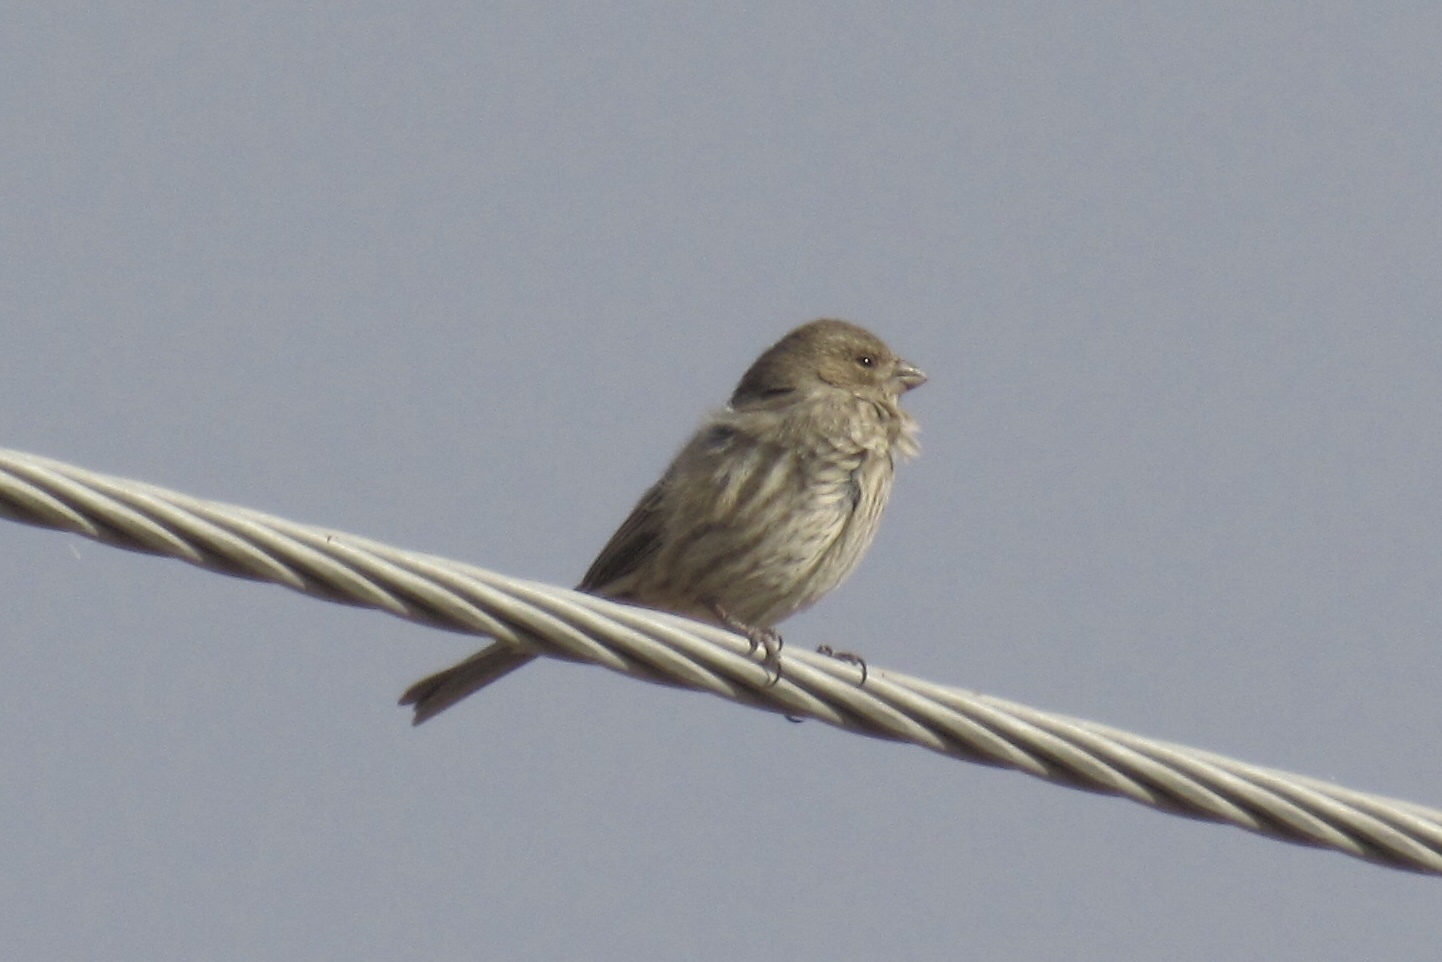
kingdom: Animalia
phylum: Chordata
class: Aves
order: Passeriformes
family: Fringillidae
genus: Haemorhous
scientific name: Haemorhous mexicanus
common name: House finch
